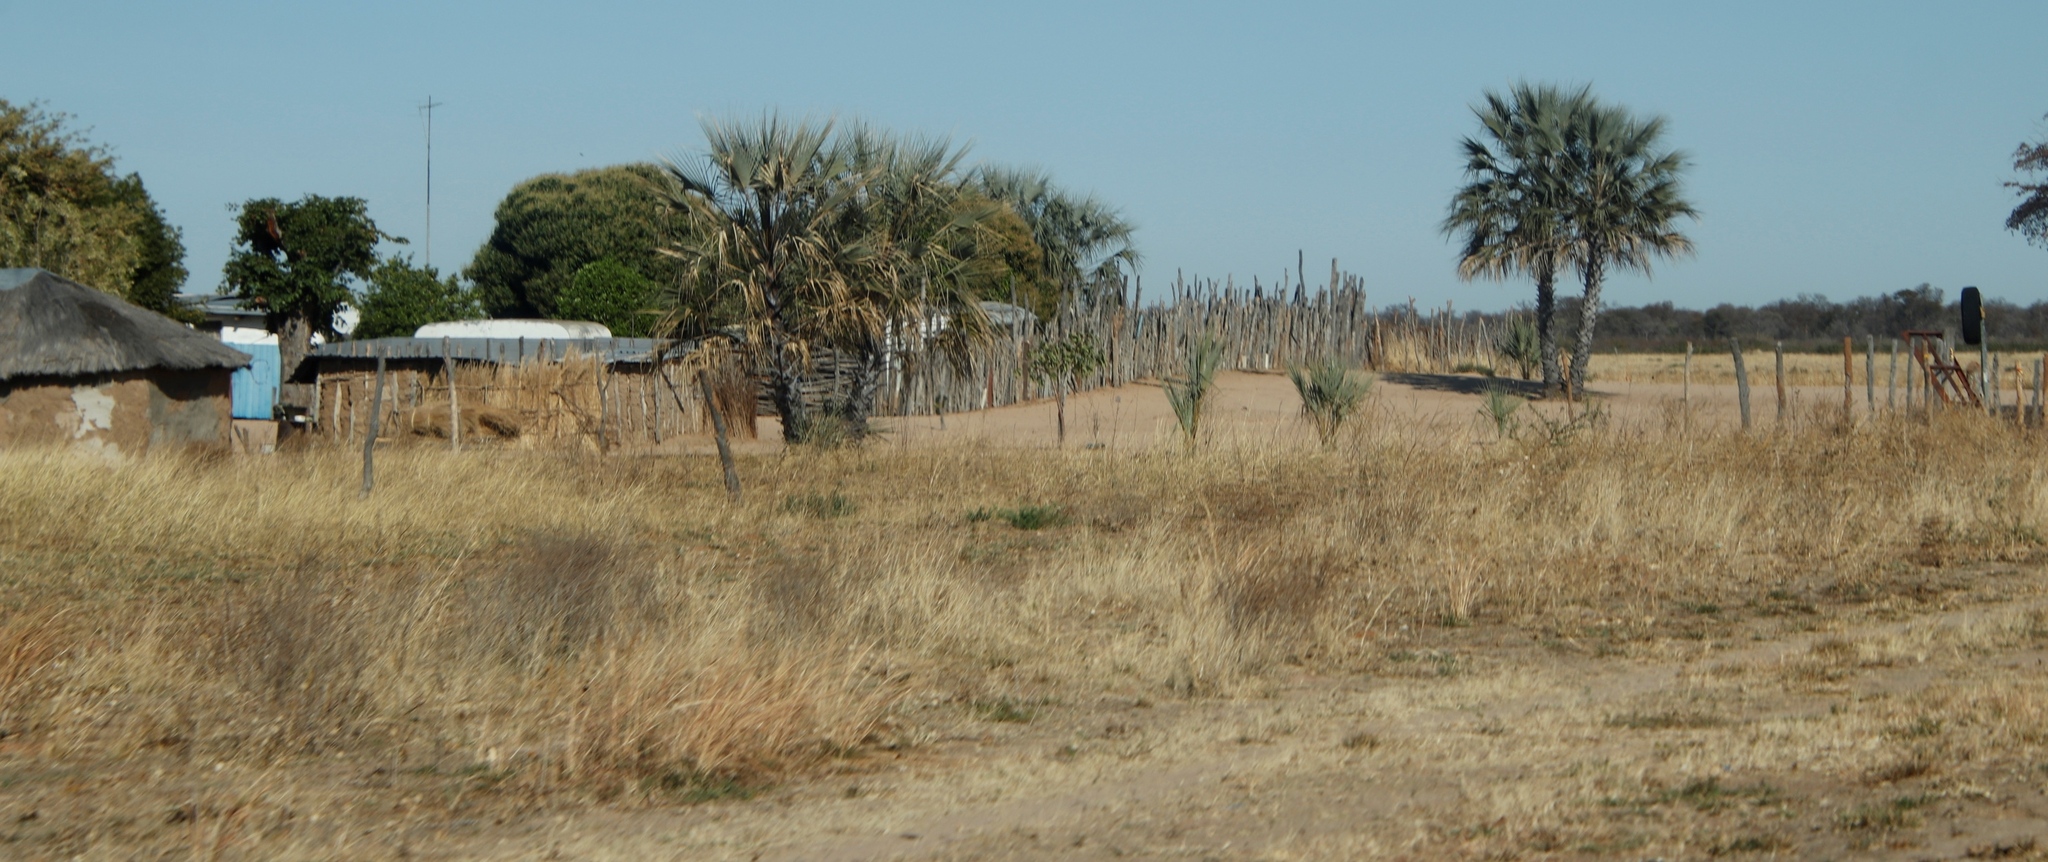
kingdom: Plantae
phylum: Tracheophyta
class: Liliopsida
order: Arecales
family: Arecaceae
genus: Hyphaene
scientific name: Hyphaene petersiana
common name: African ivory nut palm
